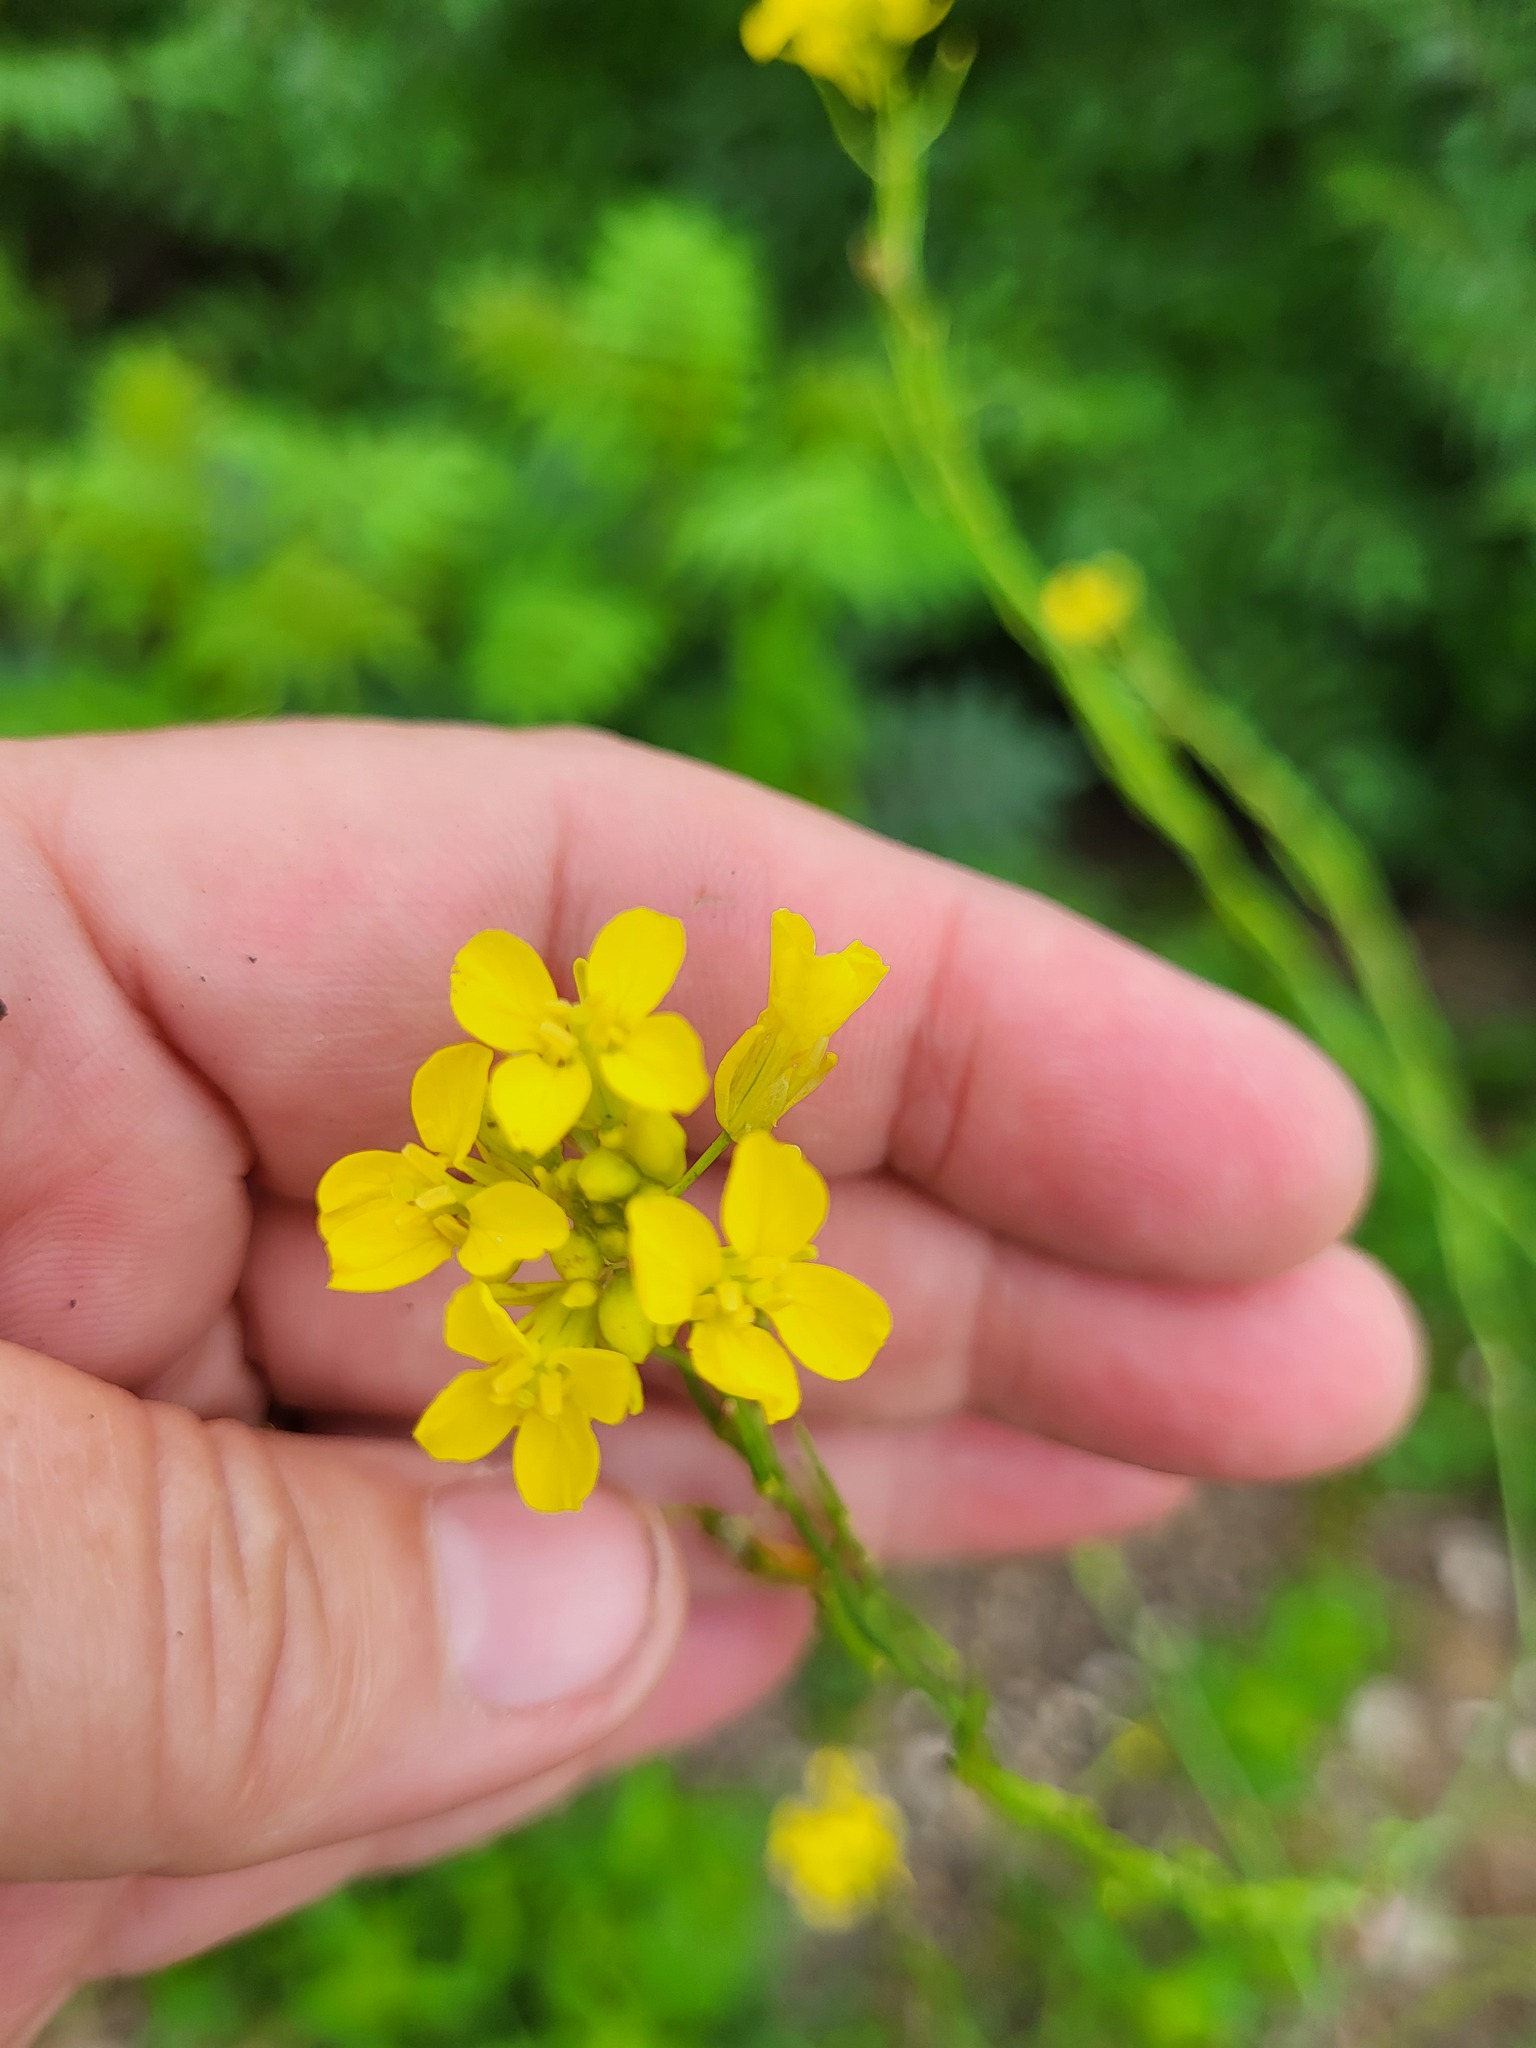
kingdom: Plantae
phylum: Tracheophyta
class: Magnoliopsida
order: Brassicales
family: Brassicaceae
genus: Brassica
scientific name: Brassica nigra
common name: Black mustard
